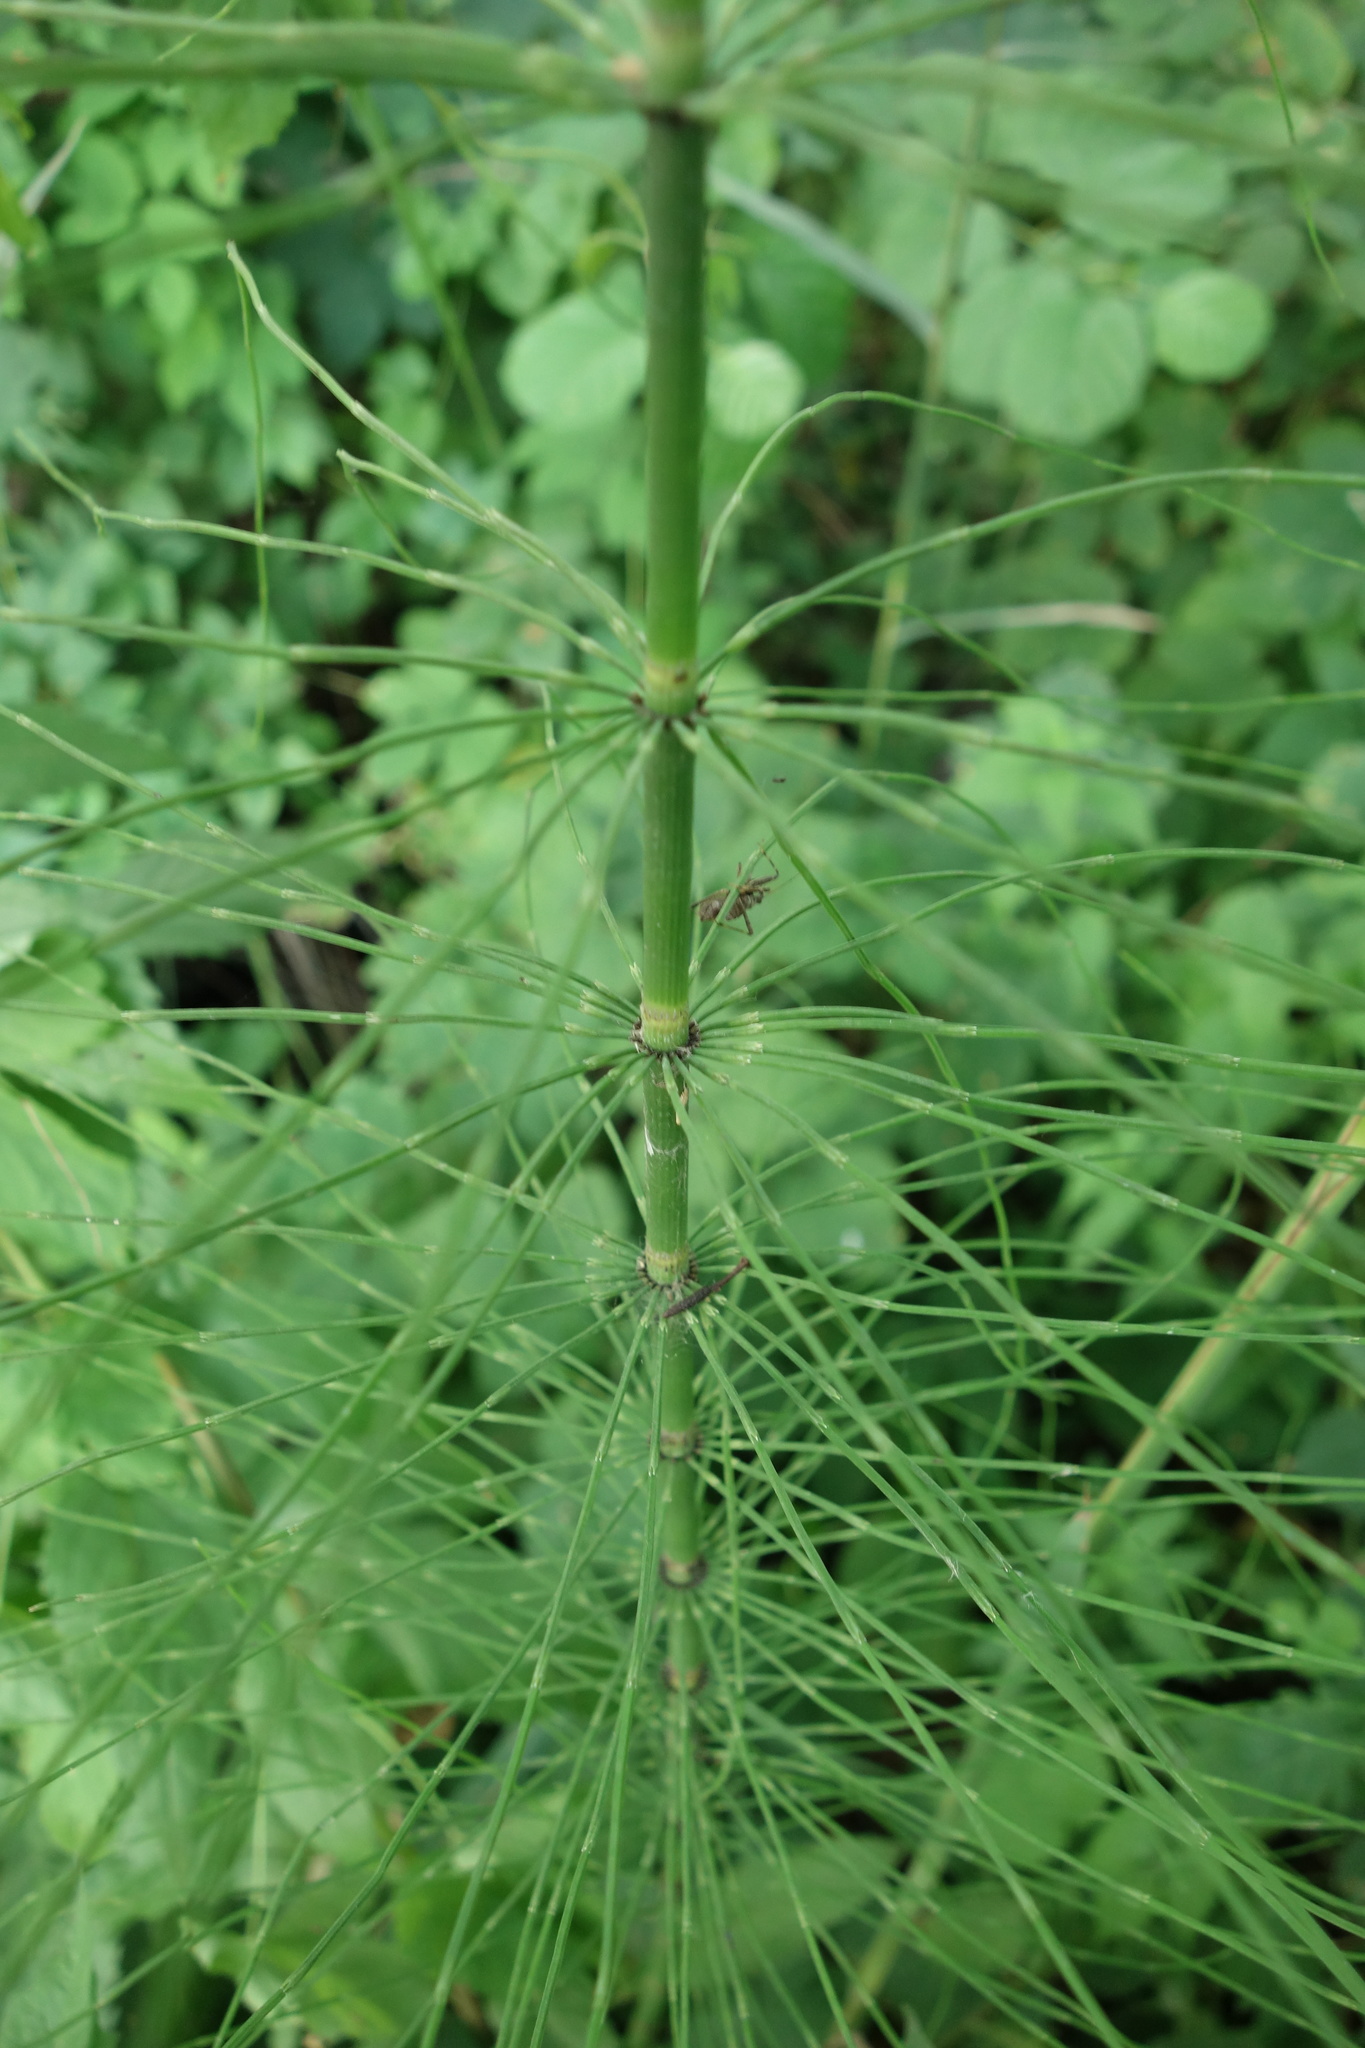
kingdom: Plantae
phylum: Tracheophyta
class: Polypodiopsida
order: Equisetales
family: Equisetaceae
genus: Equisetum
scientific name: Equisetum fluviatile
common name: Water horsetail
